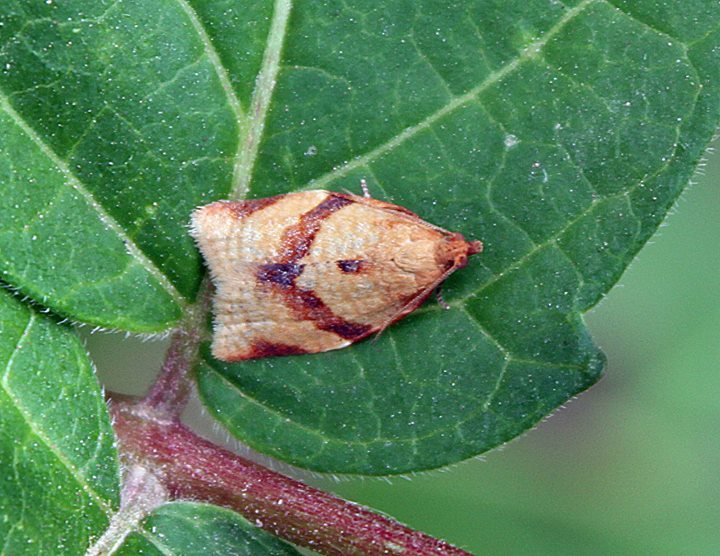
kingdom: Animalia
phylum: Arthropoda
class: Insecta
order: Lepidoptera
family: Tortricidae
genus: Clepsis
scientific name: Clepsis consimilana
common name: Privet tortrix
